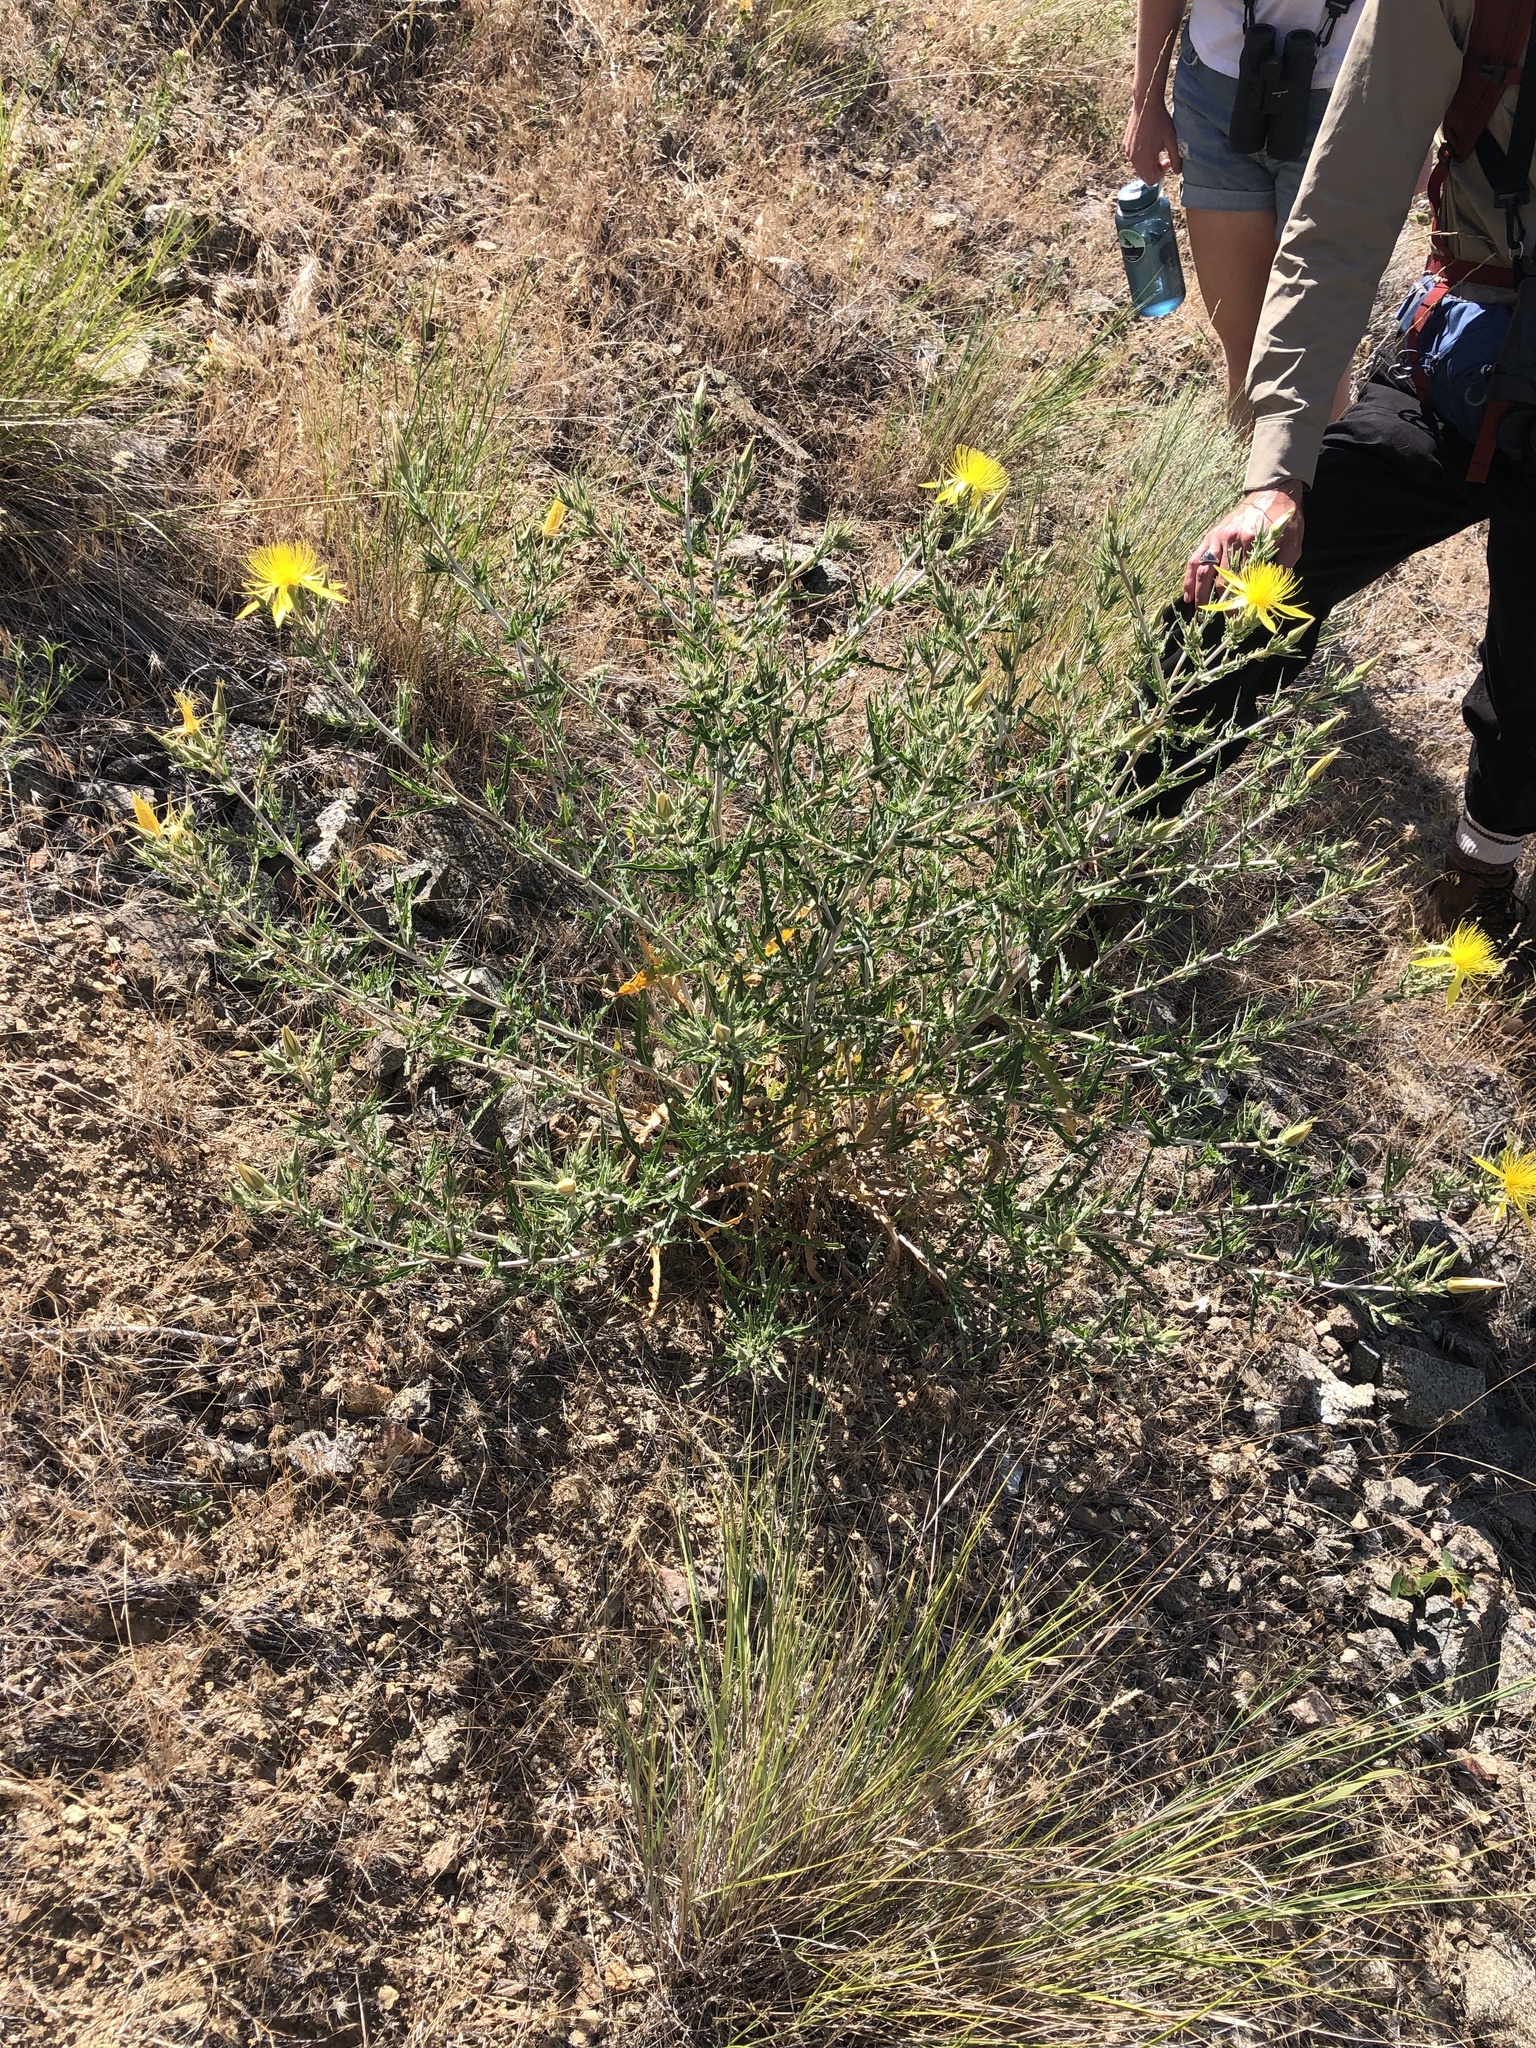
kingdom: Plantae
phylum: Tracheophyta
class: Magnoliopsida
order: Cornales
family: Loasaceae
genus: Mentzelia
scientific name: Mentzelia laevicaulis
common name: Smooth-stem blazingstar
